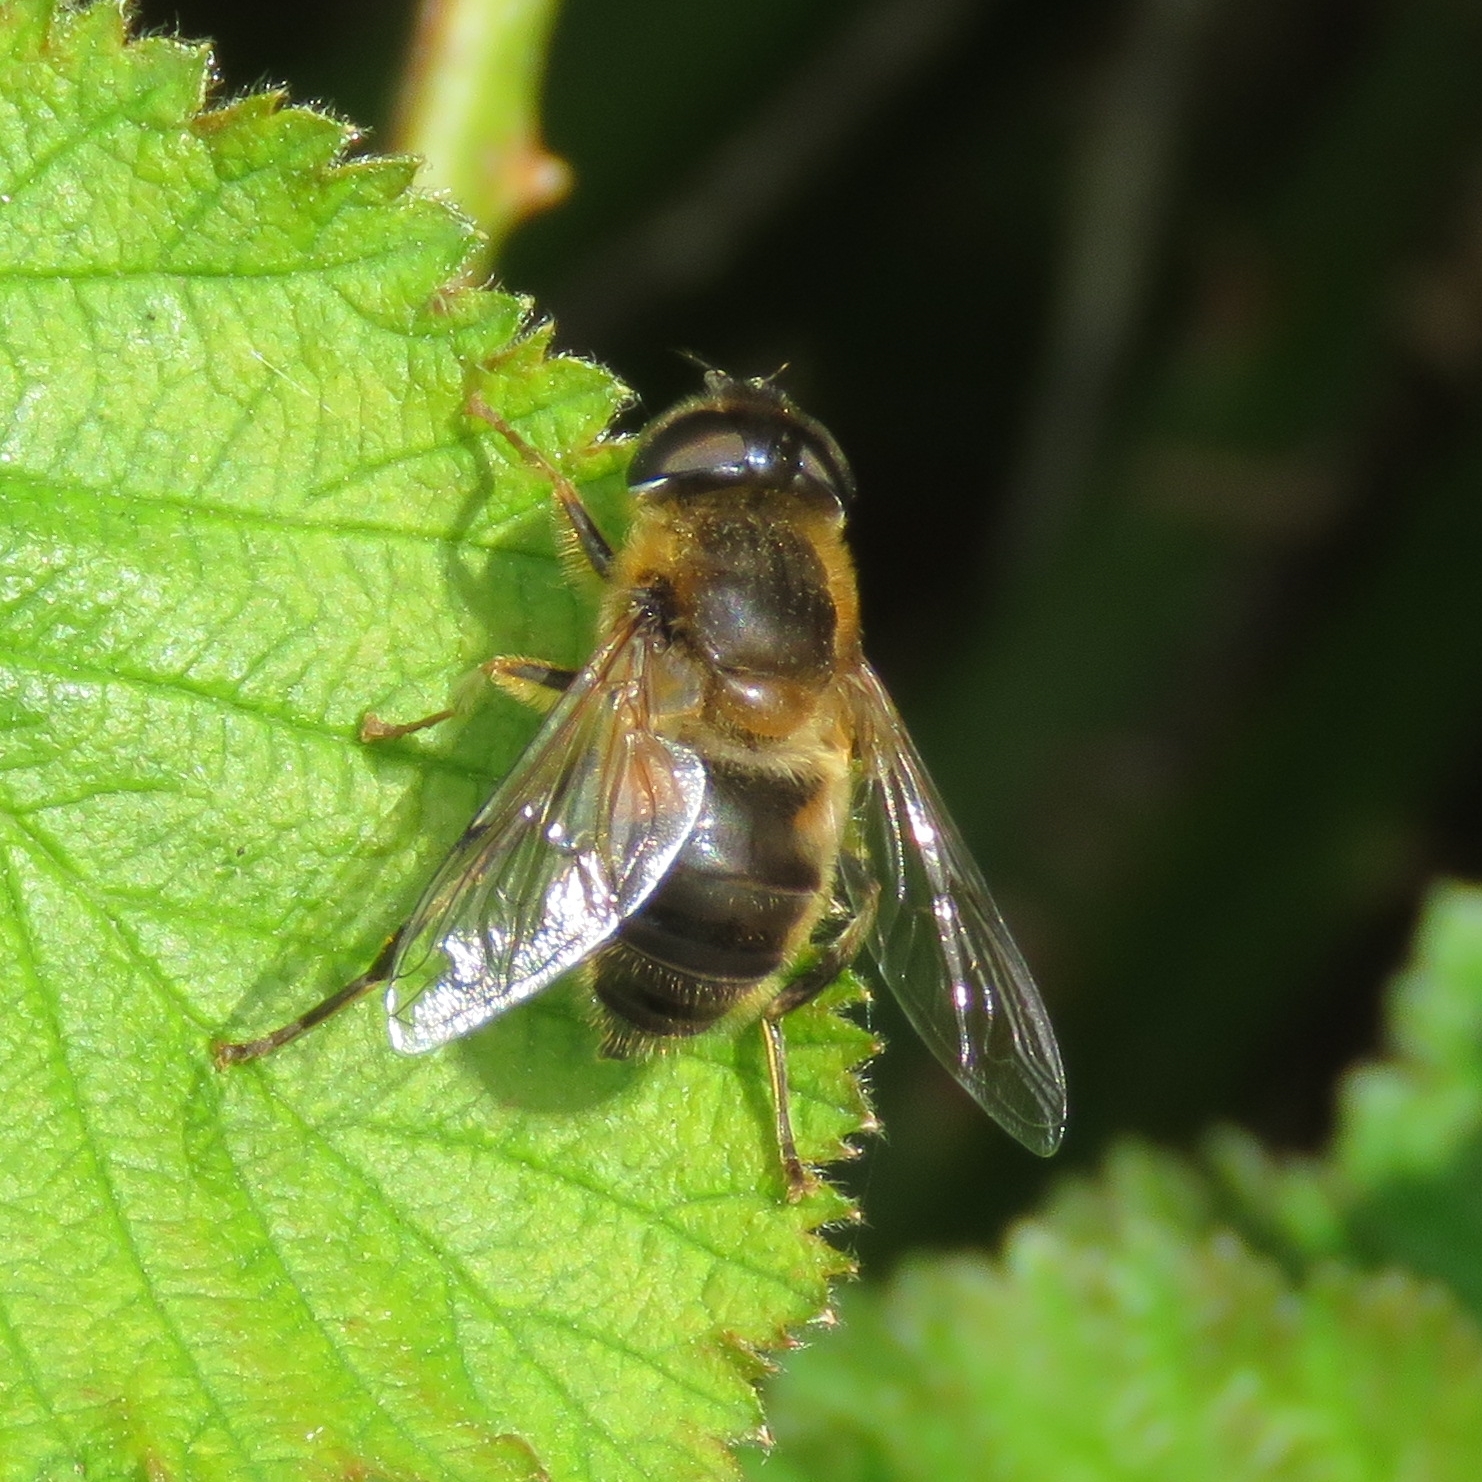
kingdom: Animalia
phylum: Arthropoda
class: Insecta
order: Diptera
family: Syrphidae
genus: Eristalis
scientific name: Eristalis pertinax
